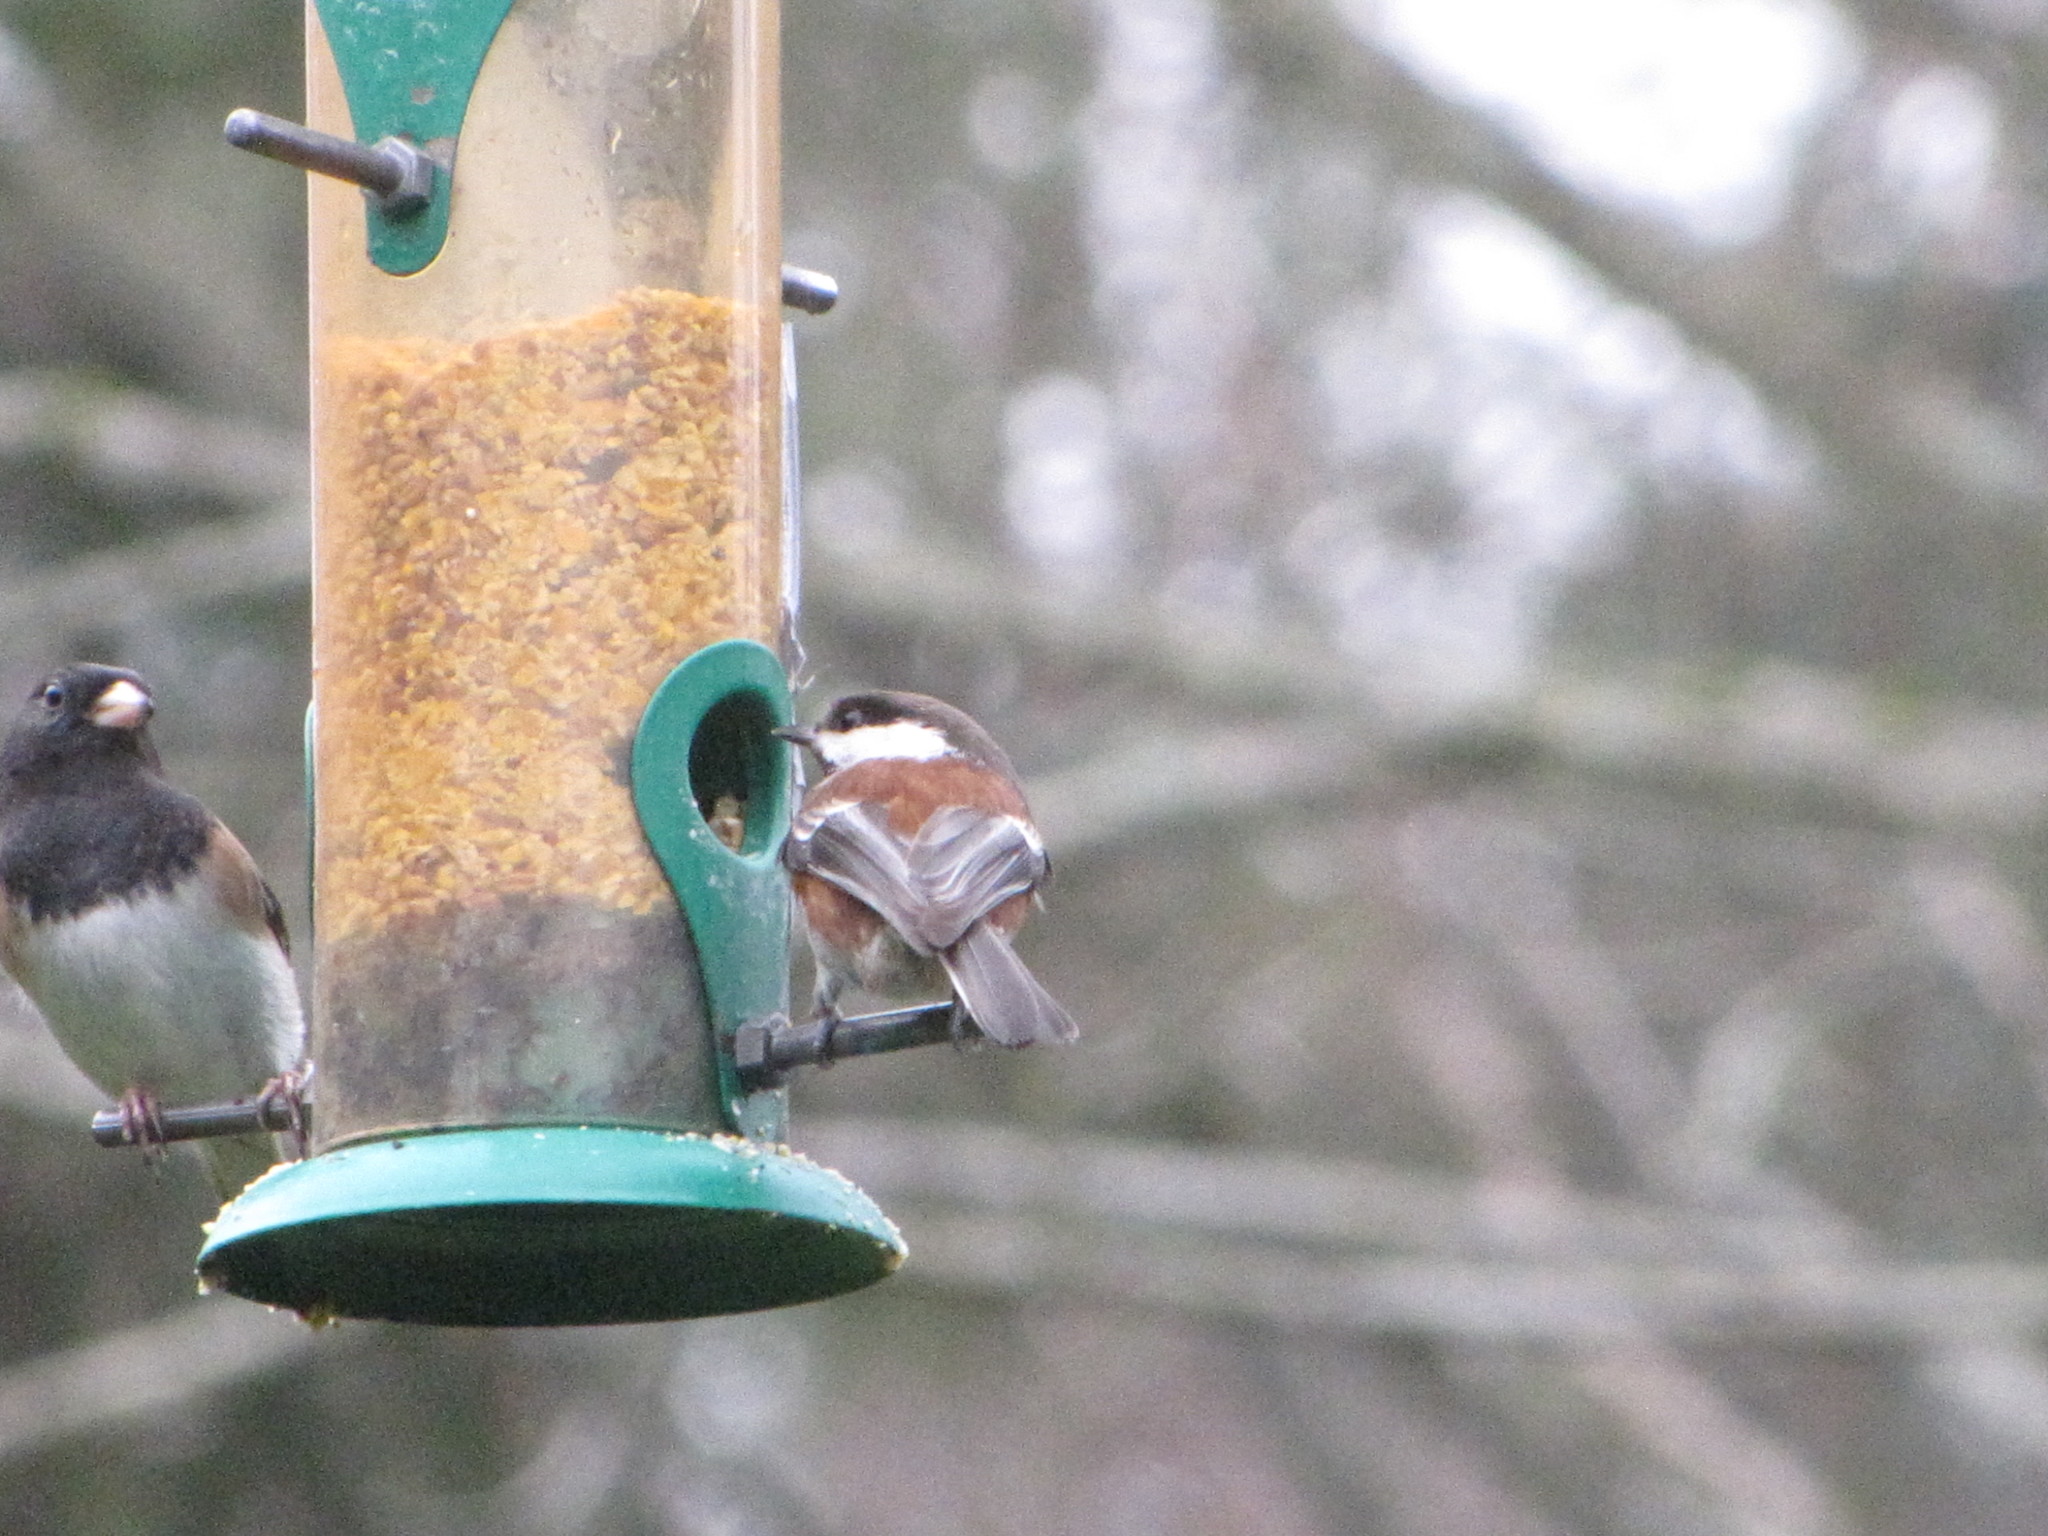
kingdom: Animalia
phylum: Chordata
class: Aves
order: Passeriformes
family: Passerellidae
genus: Junco
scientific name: Junco hyemalis
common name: Dark-eyed junco
